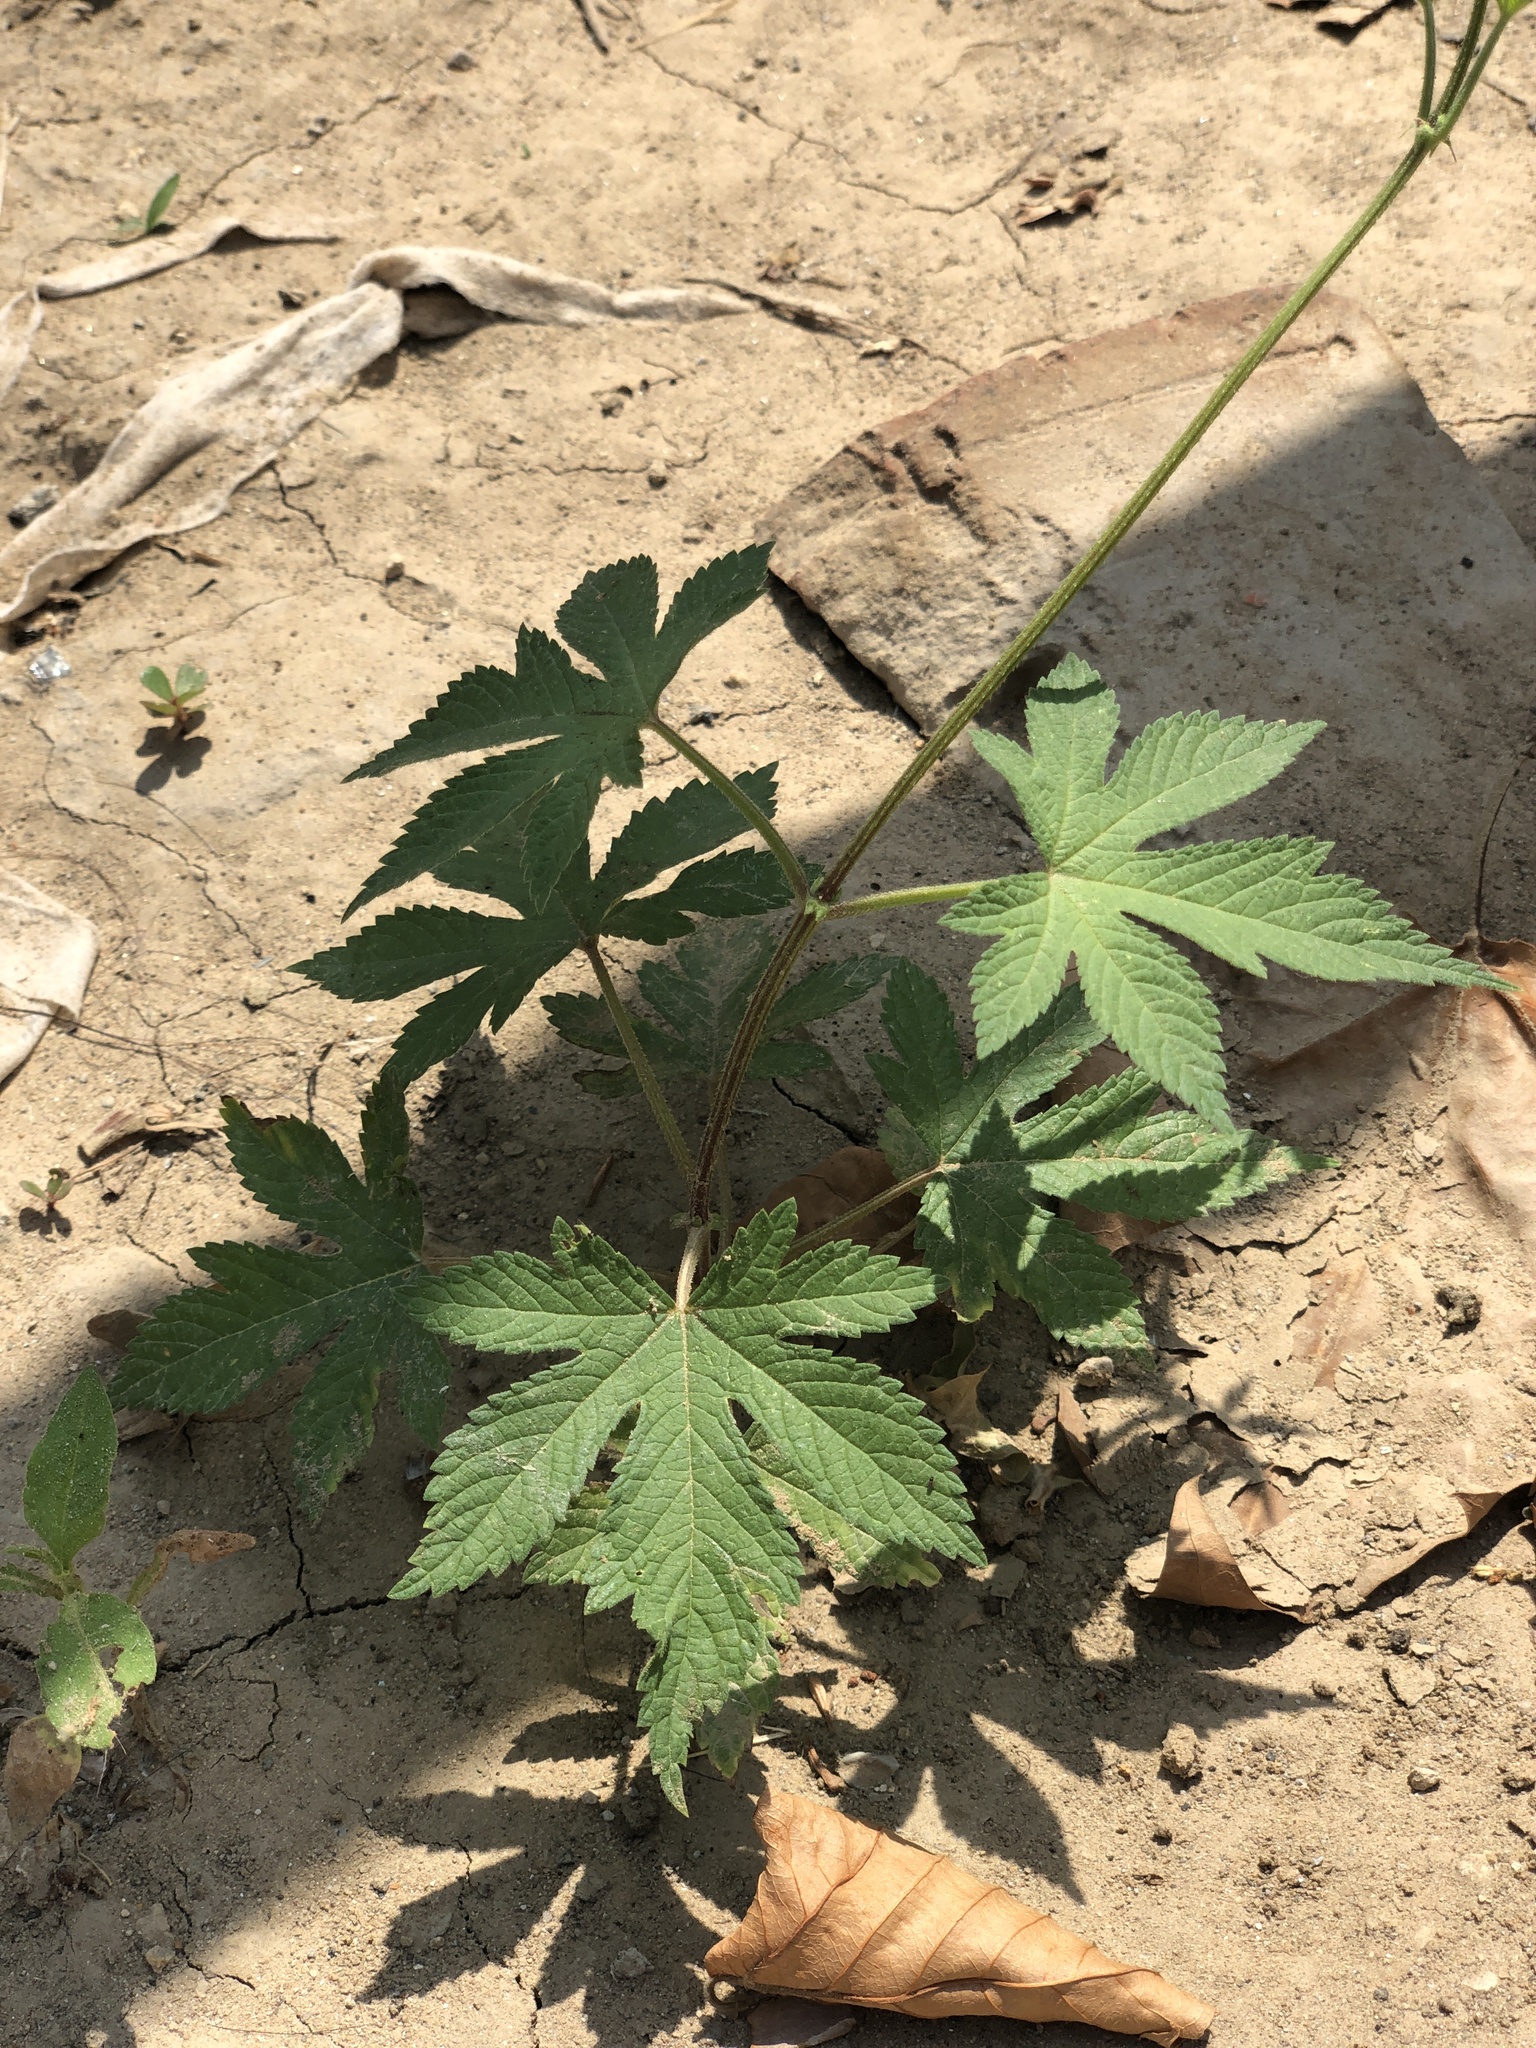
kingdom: Plantae
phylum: Tracheophyta
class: Magnoliopsida
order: Rosales
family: Cannabaceae
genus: Humulus
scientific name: Humulus scandens
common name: Japanese hop
